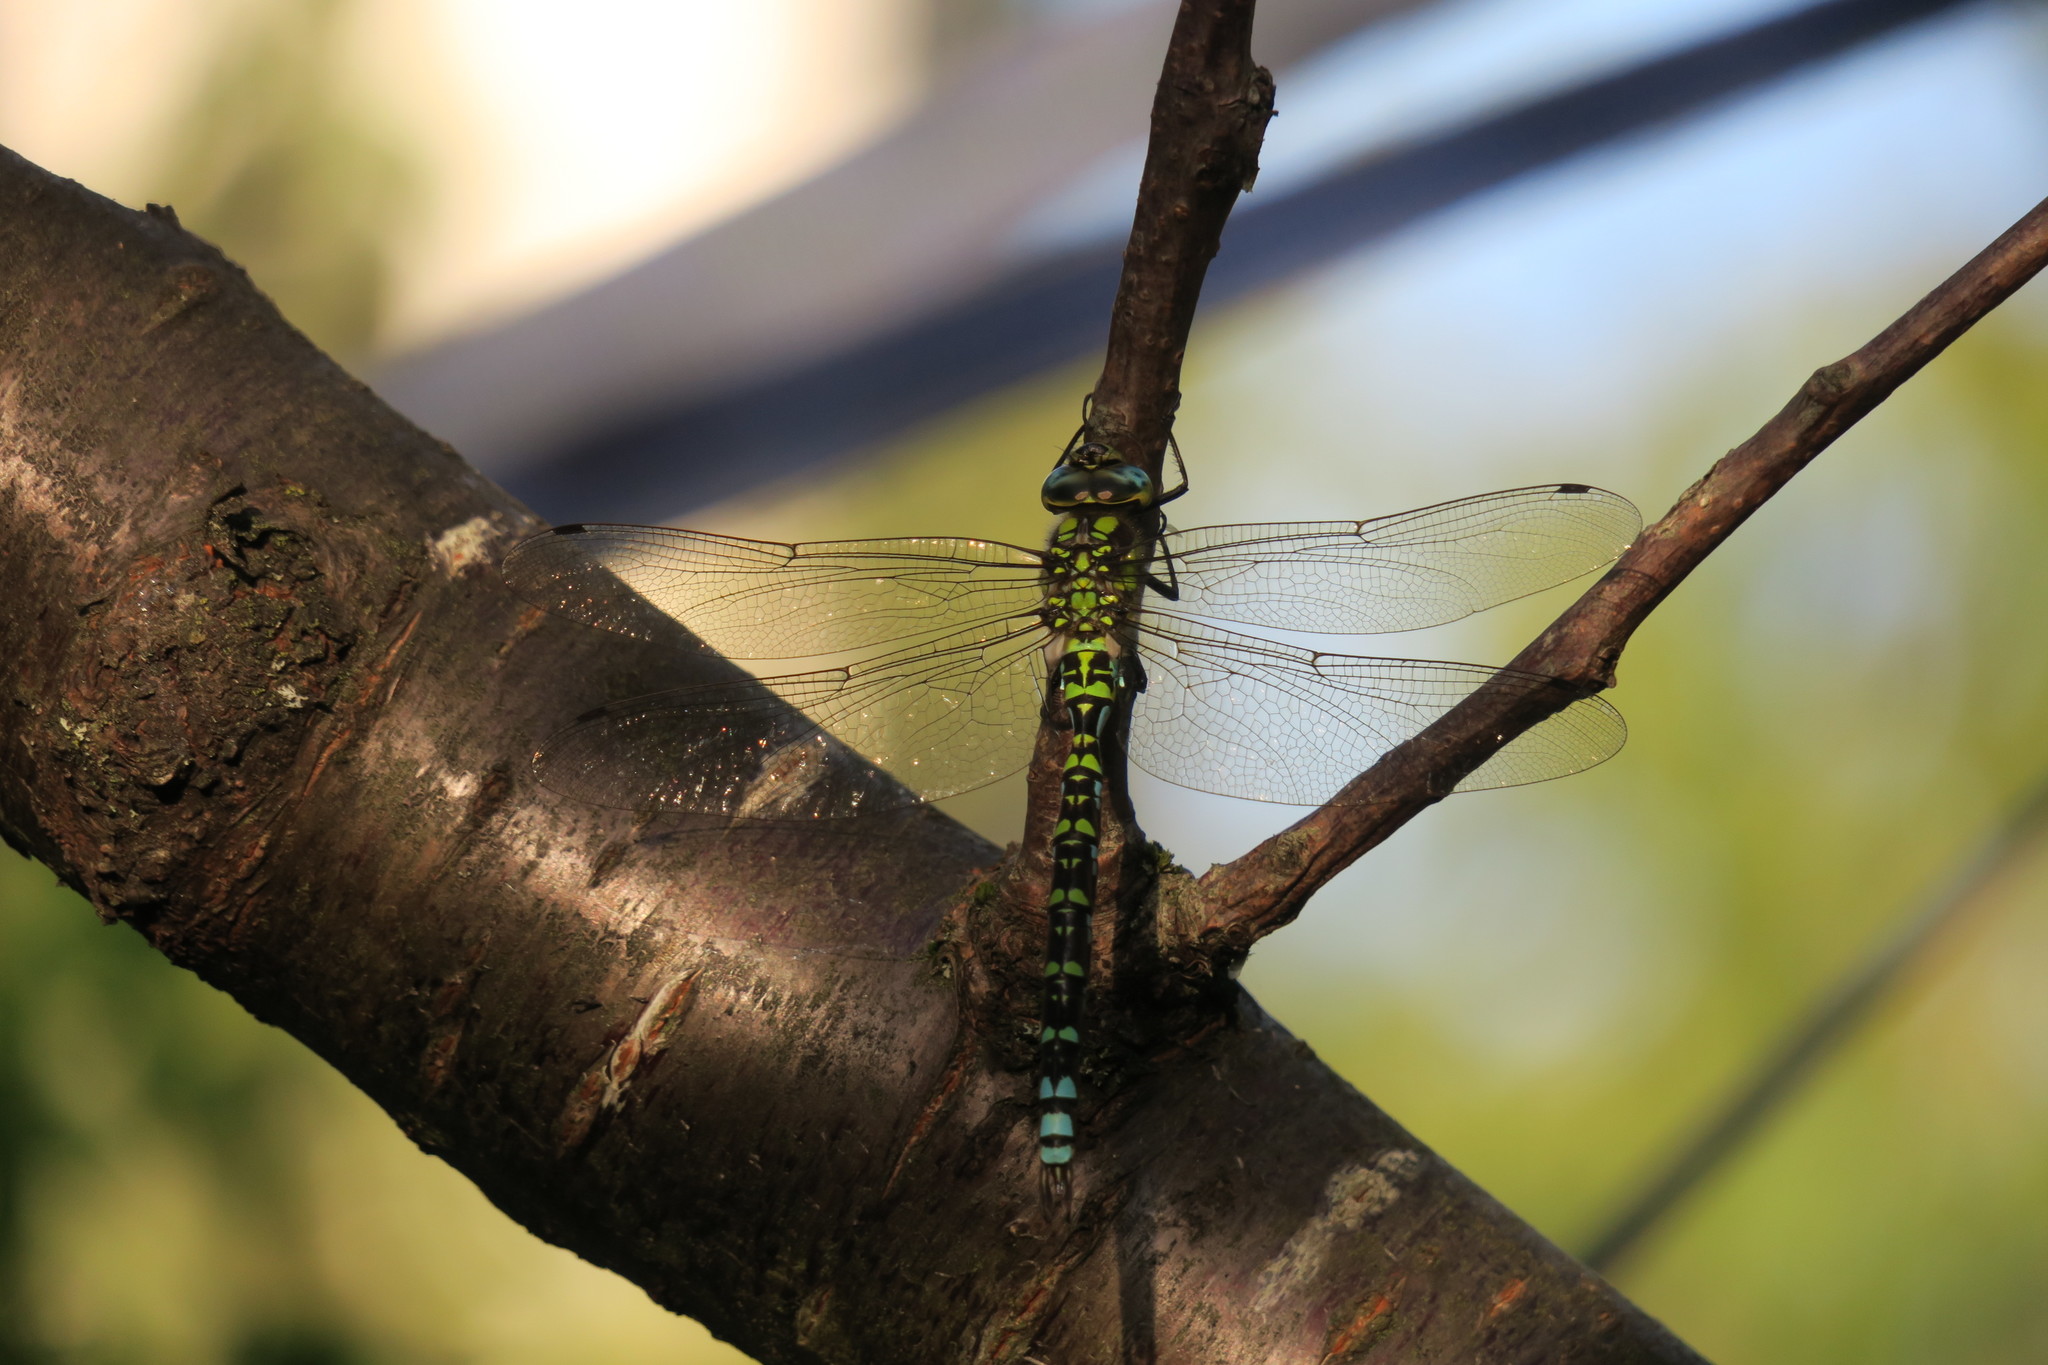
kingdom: Animalia
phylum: Arthropoda
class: Insecta
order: Odonata
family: Aeshnidae
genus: Aeshna
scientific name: Aeshna cyanea
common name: Southern hawker
